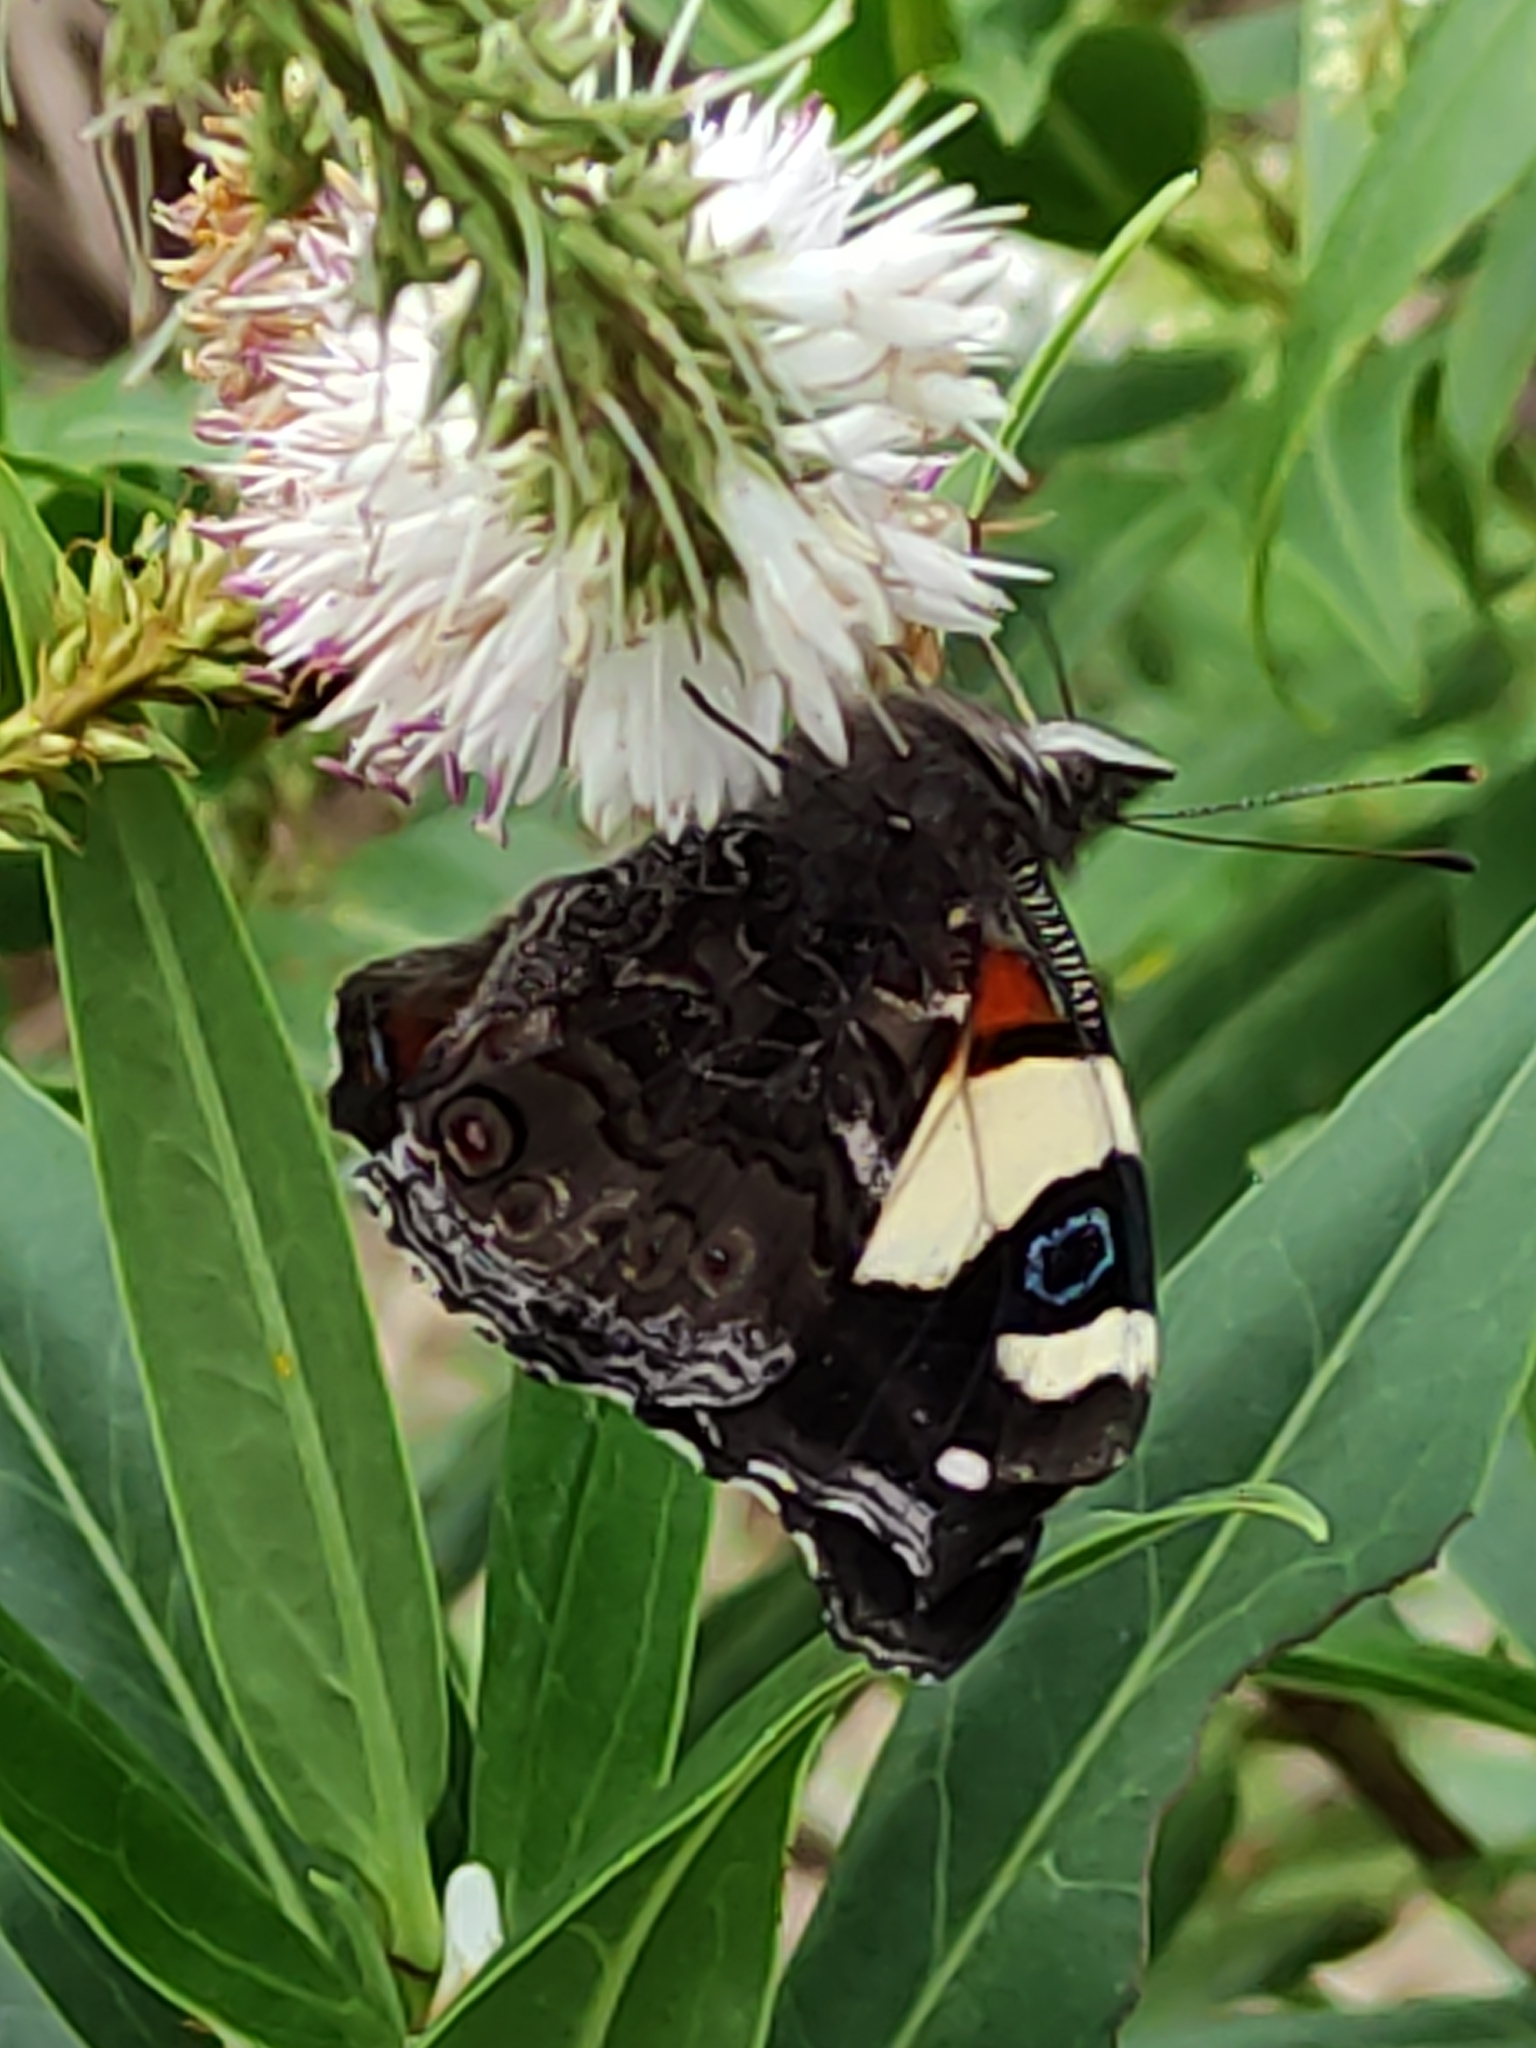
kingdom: Animalia
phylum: Arthropoda
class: Insecta
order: Lepidoptera
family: Nymphalidae
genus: Vanessa
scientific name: Vanessa itea
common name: Yellow admiral
